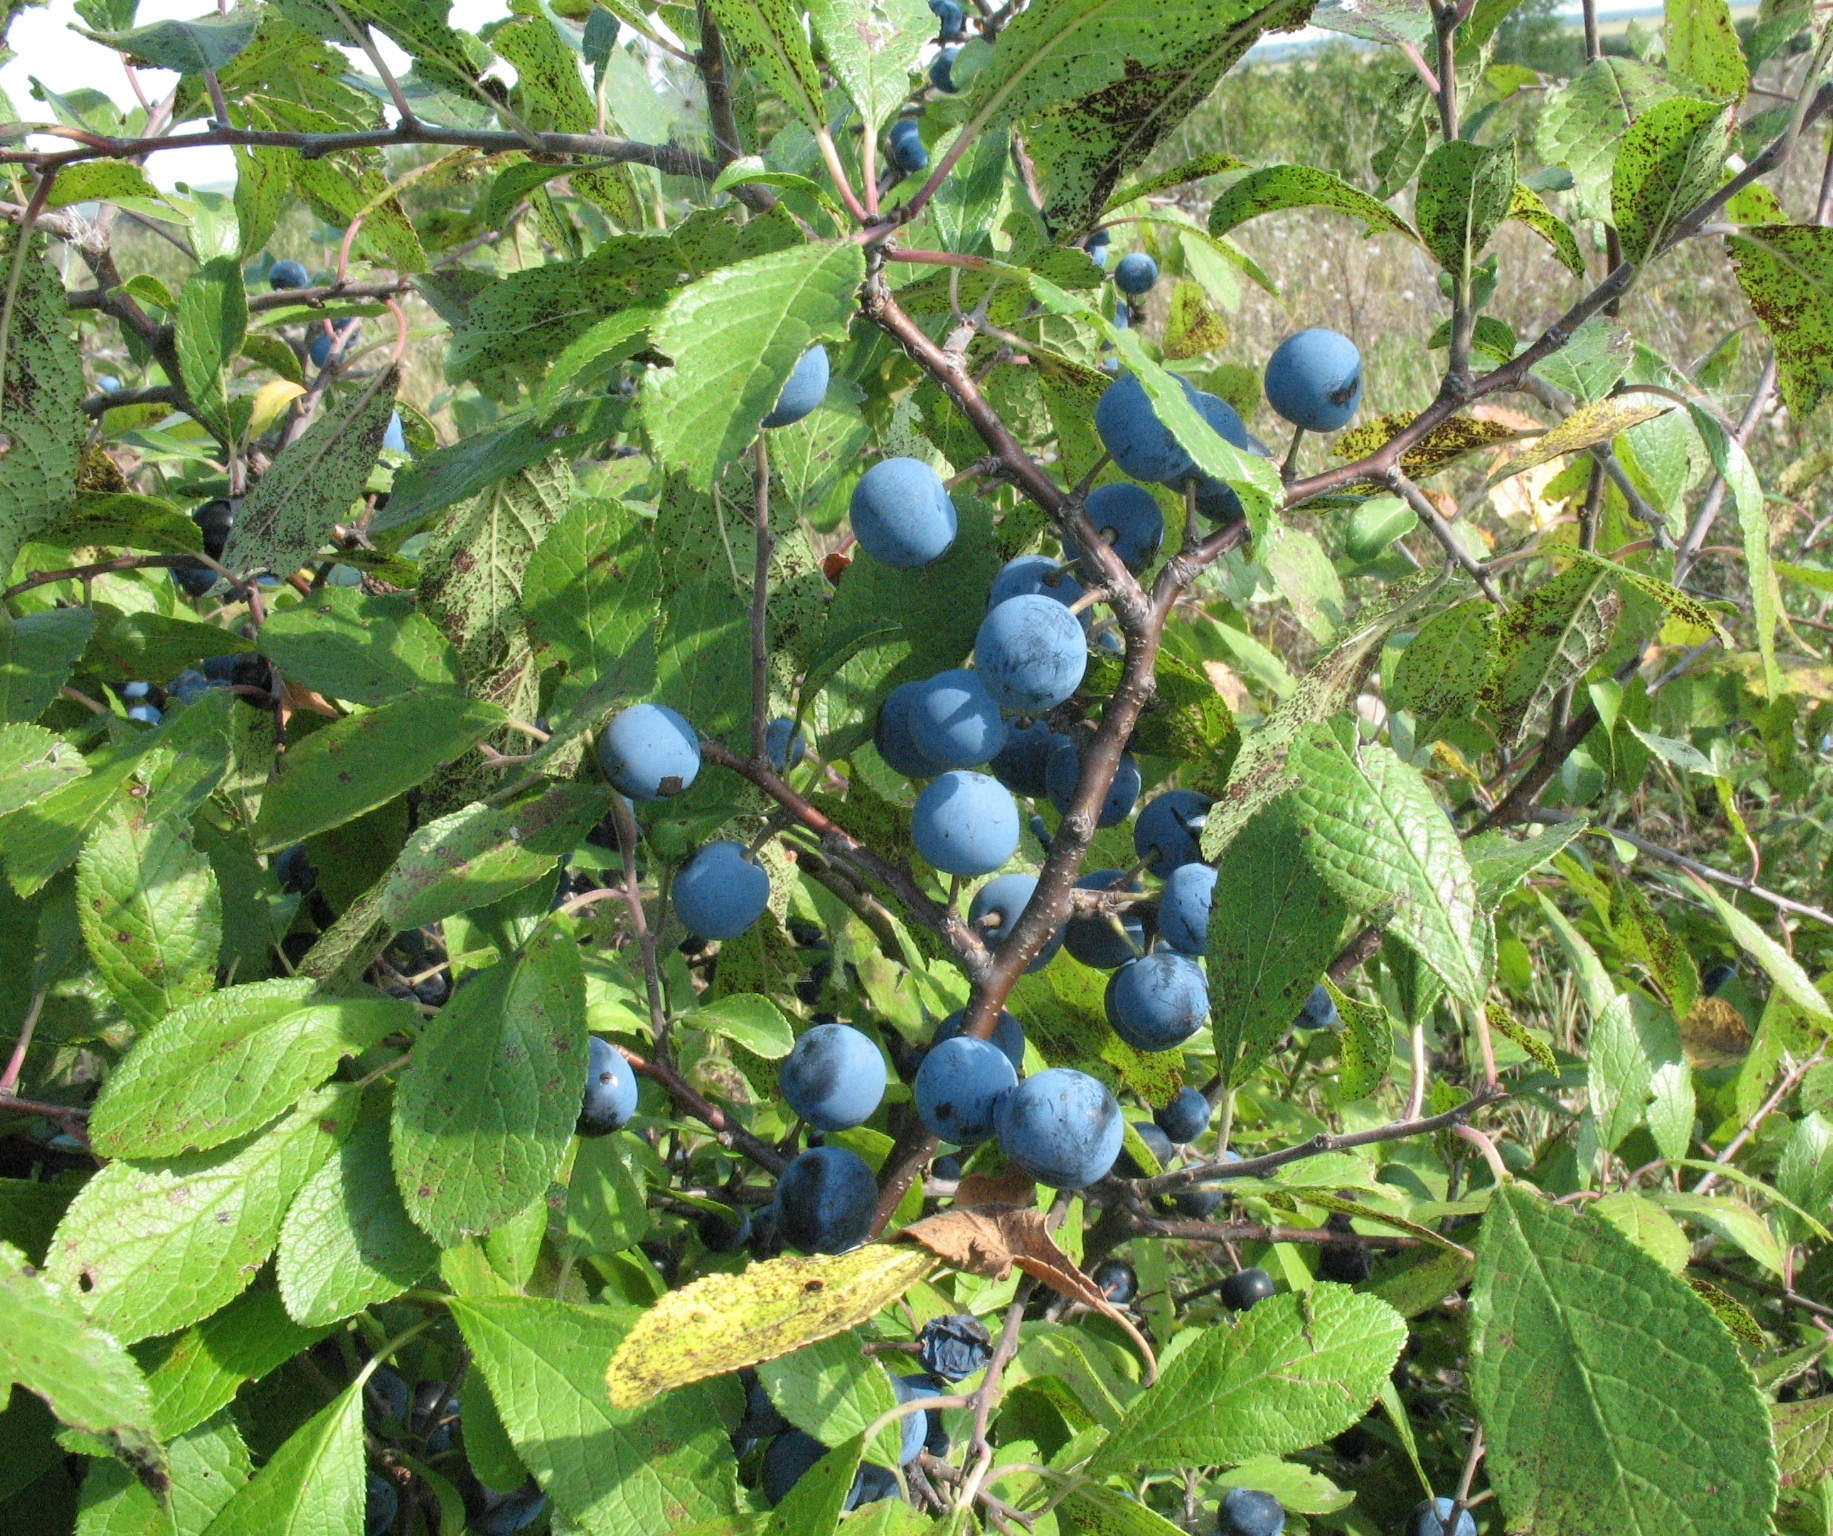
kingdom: Plantae
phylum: Tracheophyta
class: Magnoliopsida
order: Rosales
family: Rosaceae
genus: Prunus
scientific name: Prunus spinosa
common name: Blackthorn
